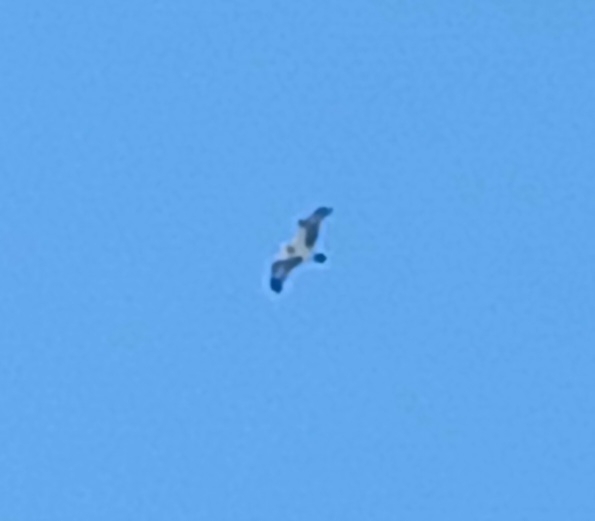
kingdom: Animalia
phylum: Chordata
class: Aves
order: Accipitriformes
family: Pandionidae
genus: Pandion
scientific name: Pandion haliaetus
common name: Osprey
